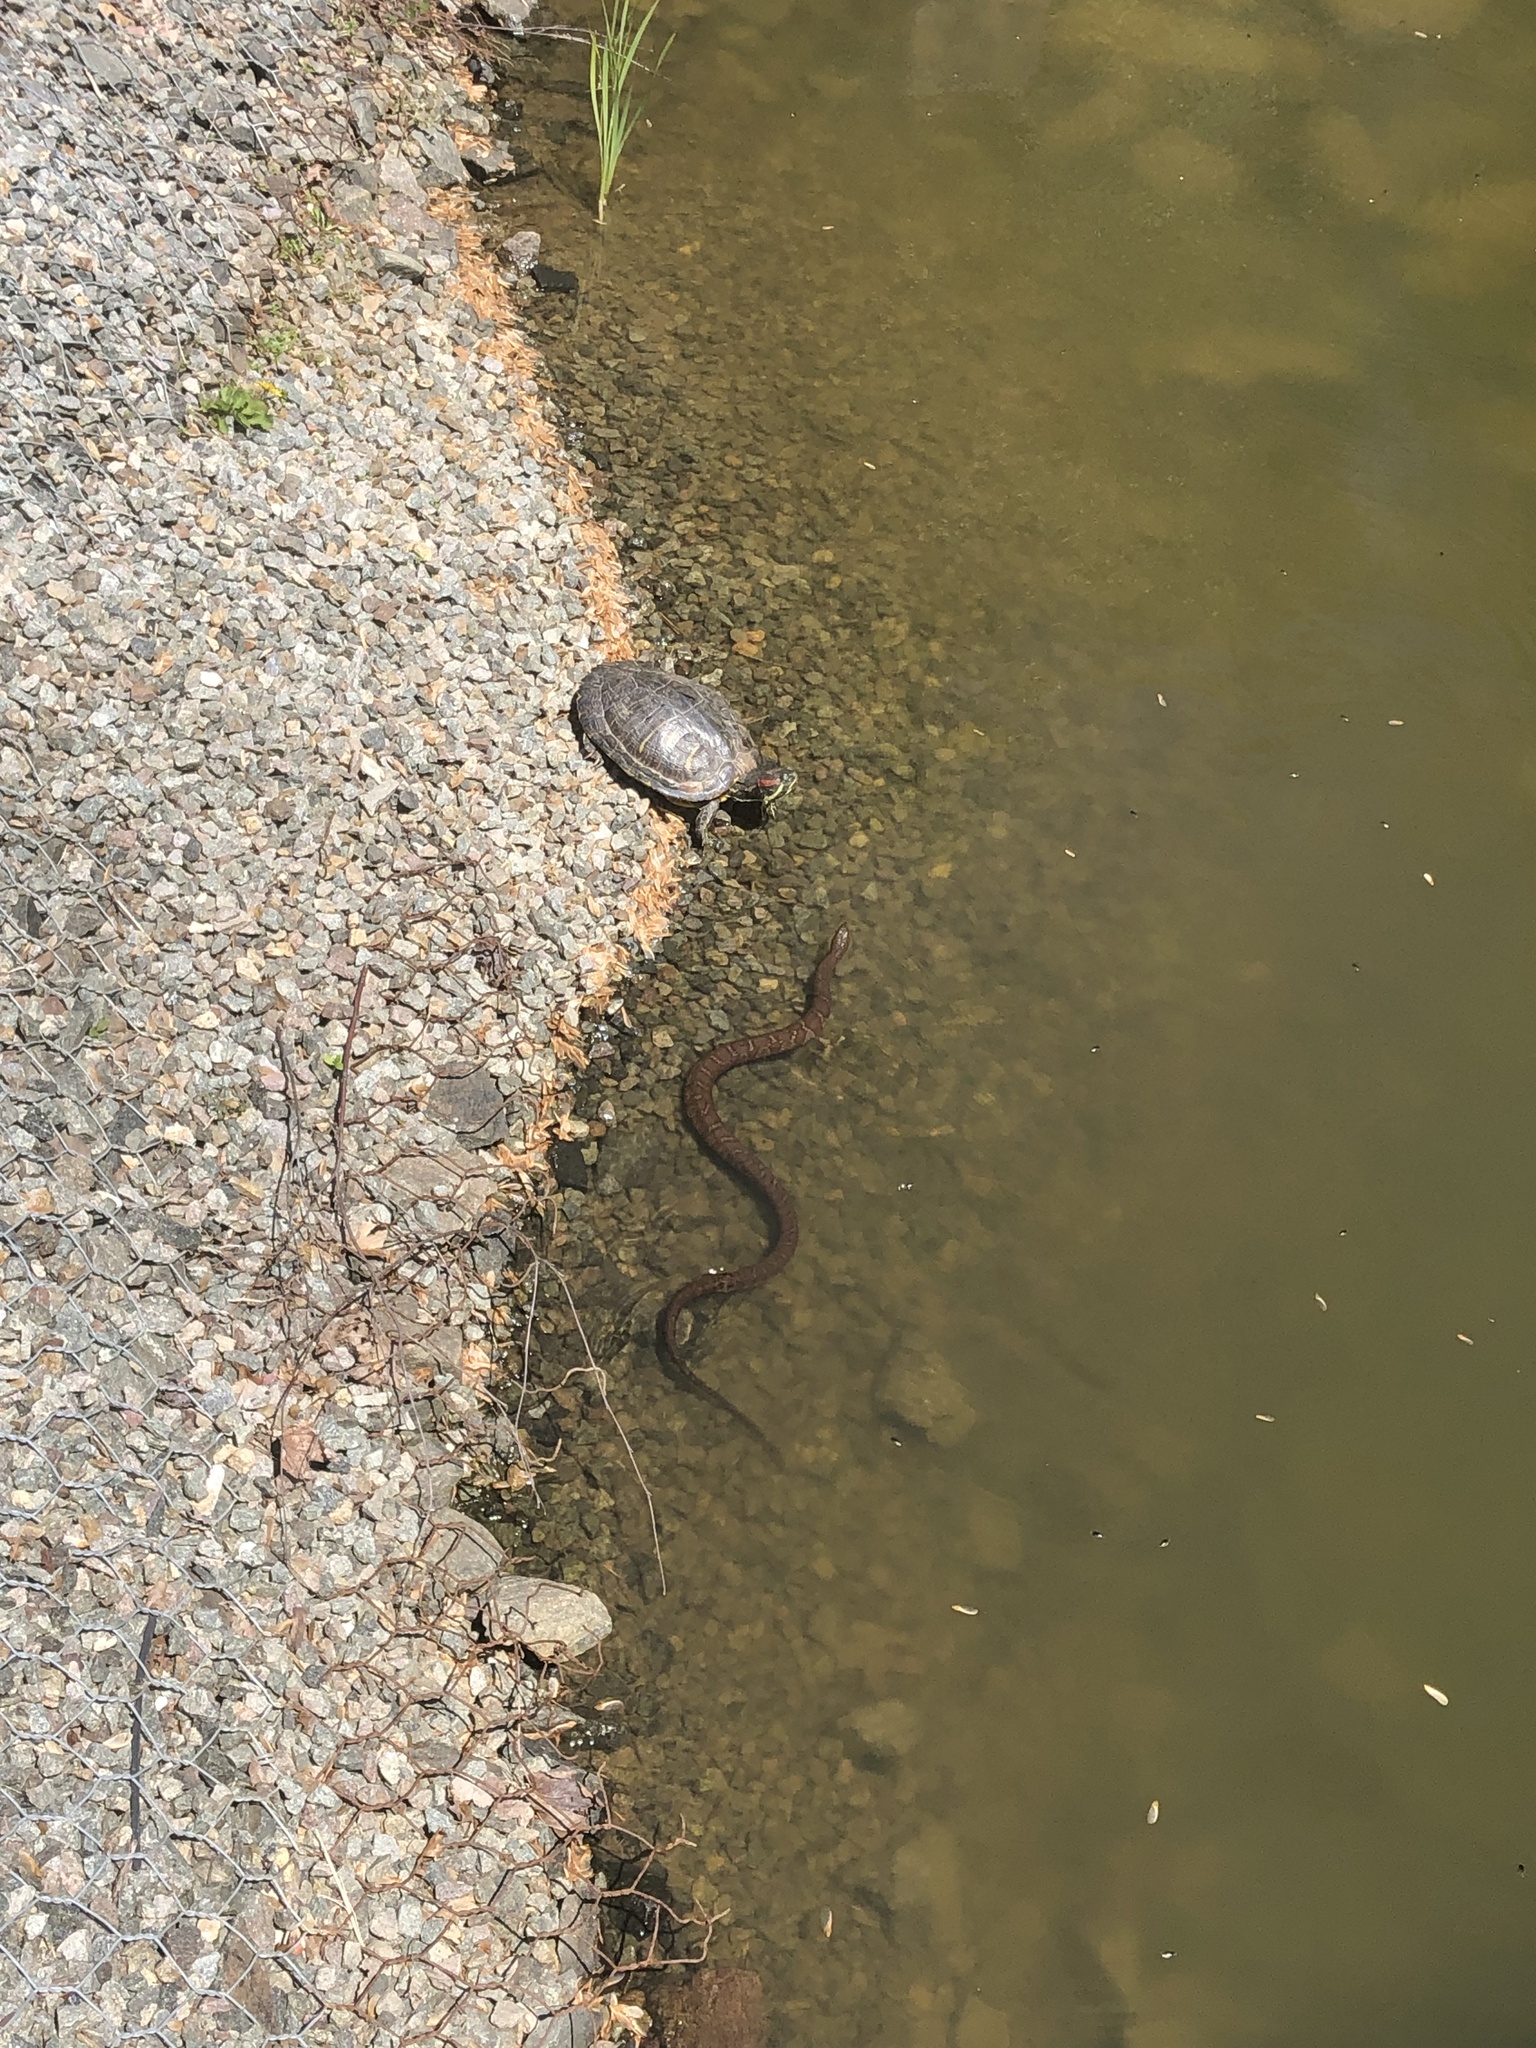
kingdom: Animalia
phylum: Chordata
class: Testudines
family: Emydidae
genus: Trachemys
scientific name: Trachemys scripta
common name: Slider
